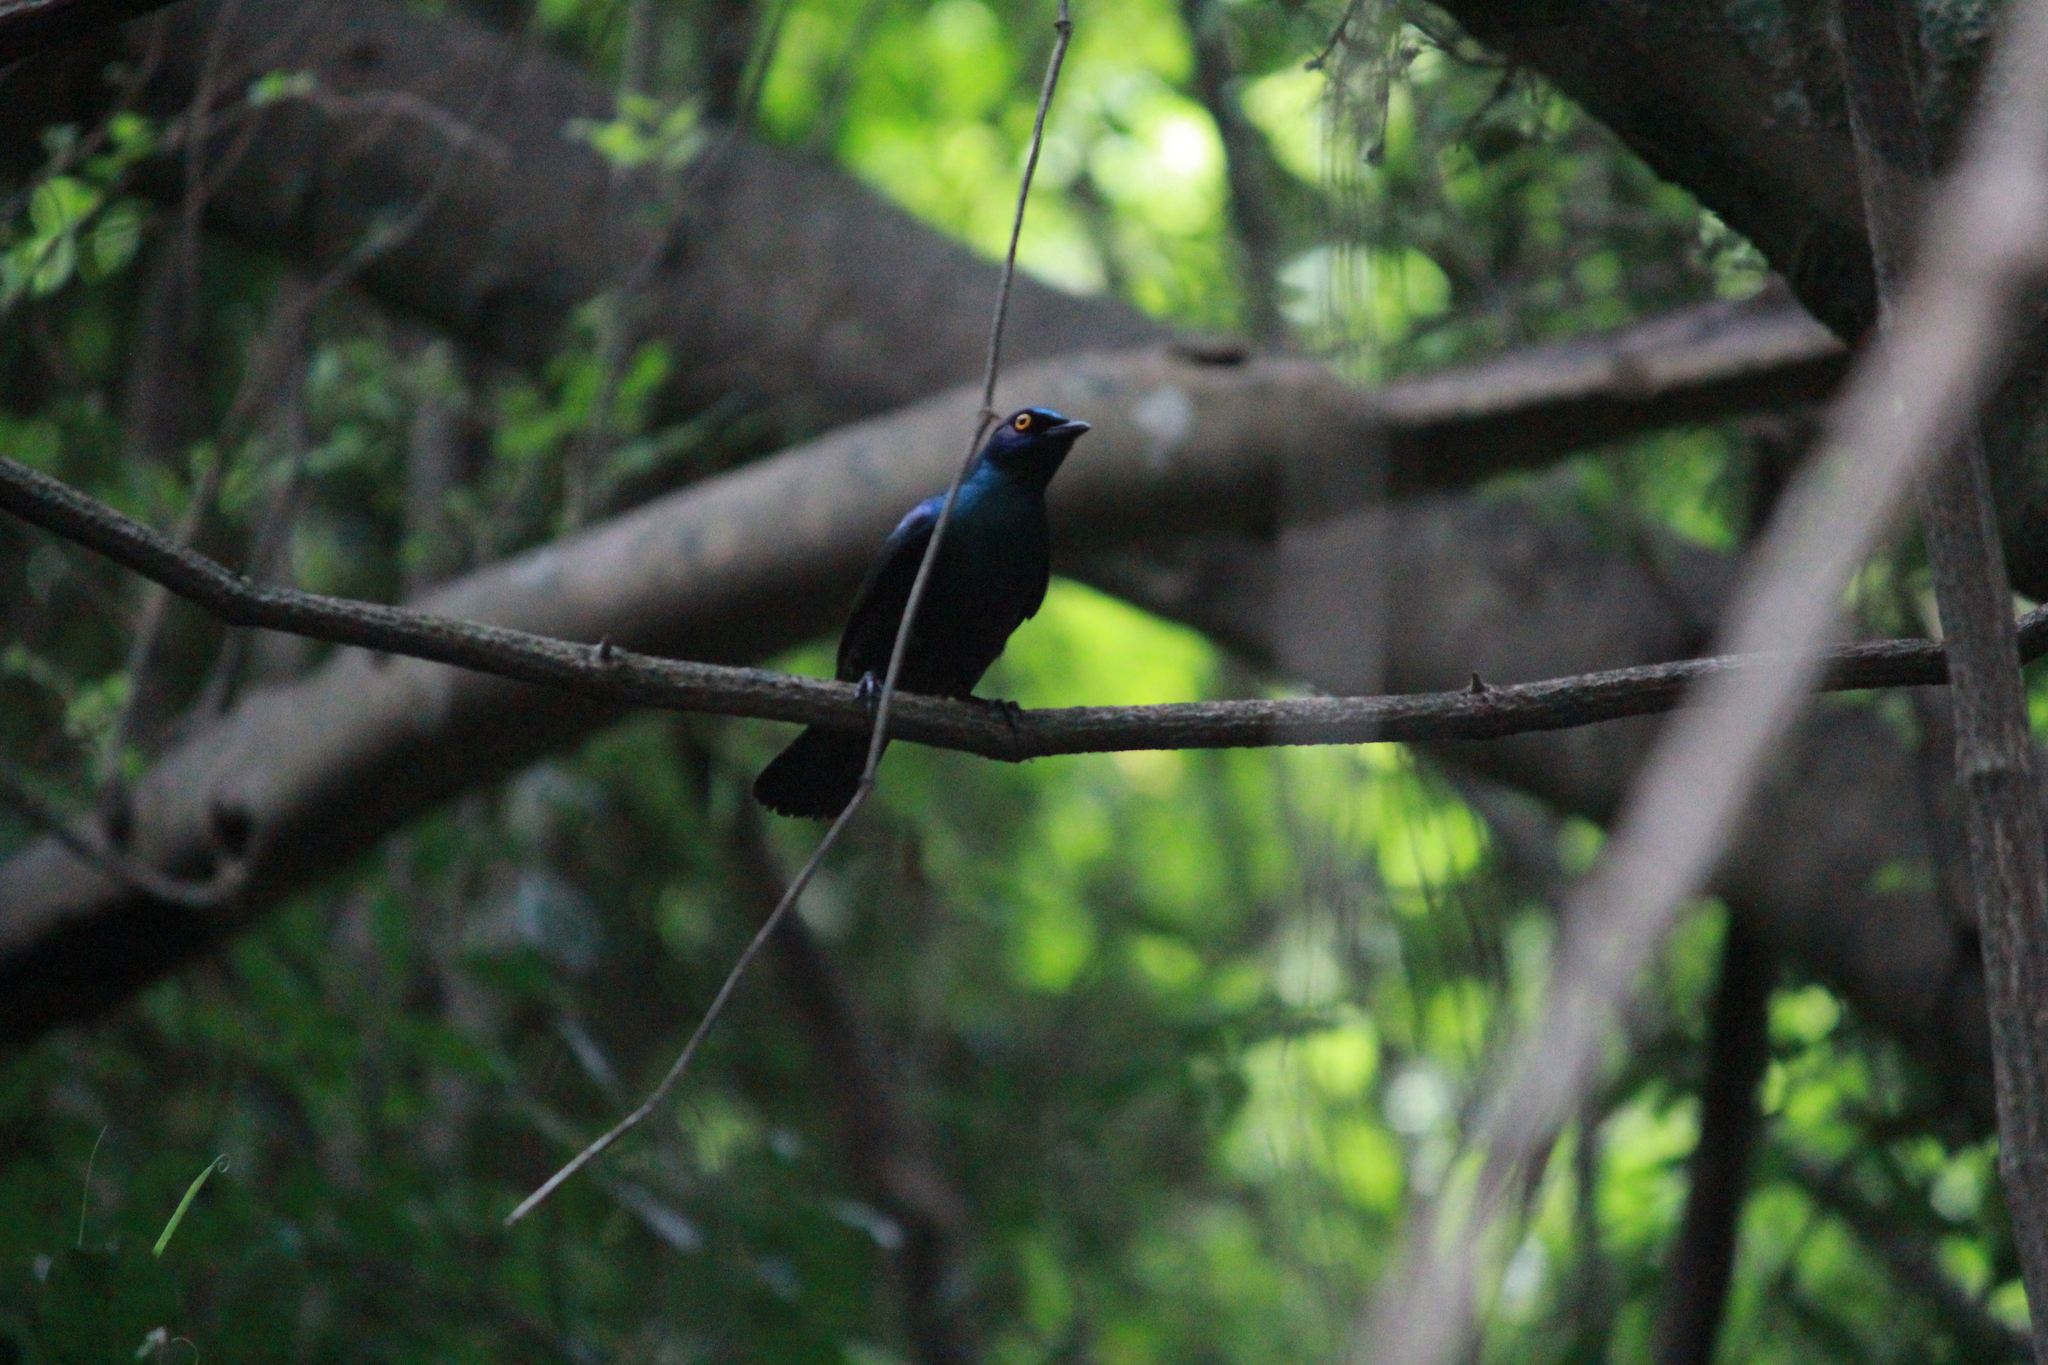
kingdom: Animalia
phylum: Chordata
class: Aves
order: Passeriformes
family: Sturnidae
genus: Notopholia
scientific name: Notopholia corrusca
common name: Black-bellied starling
